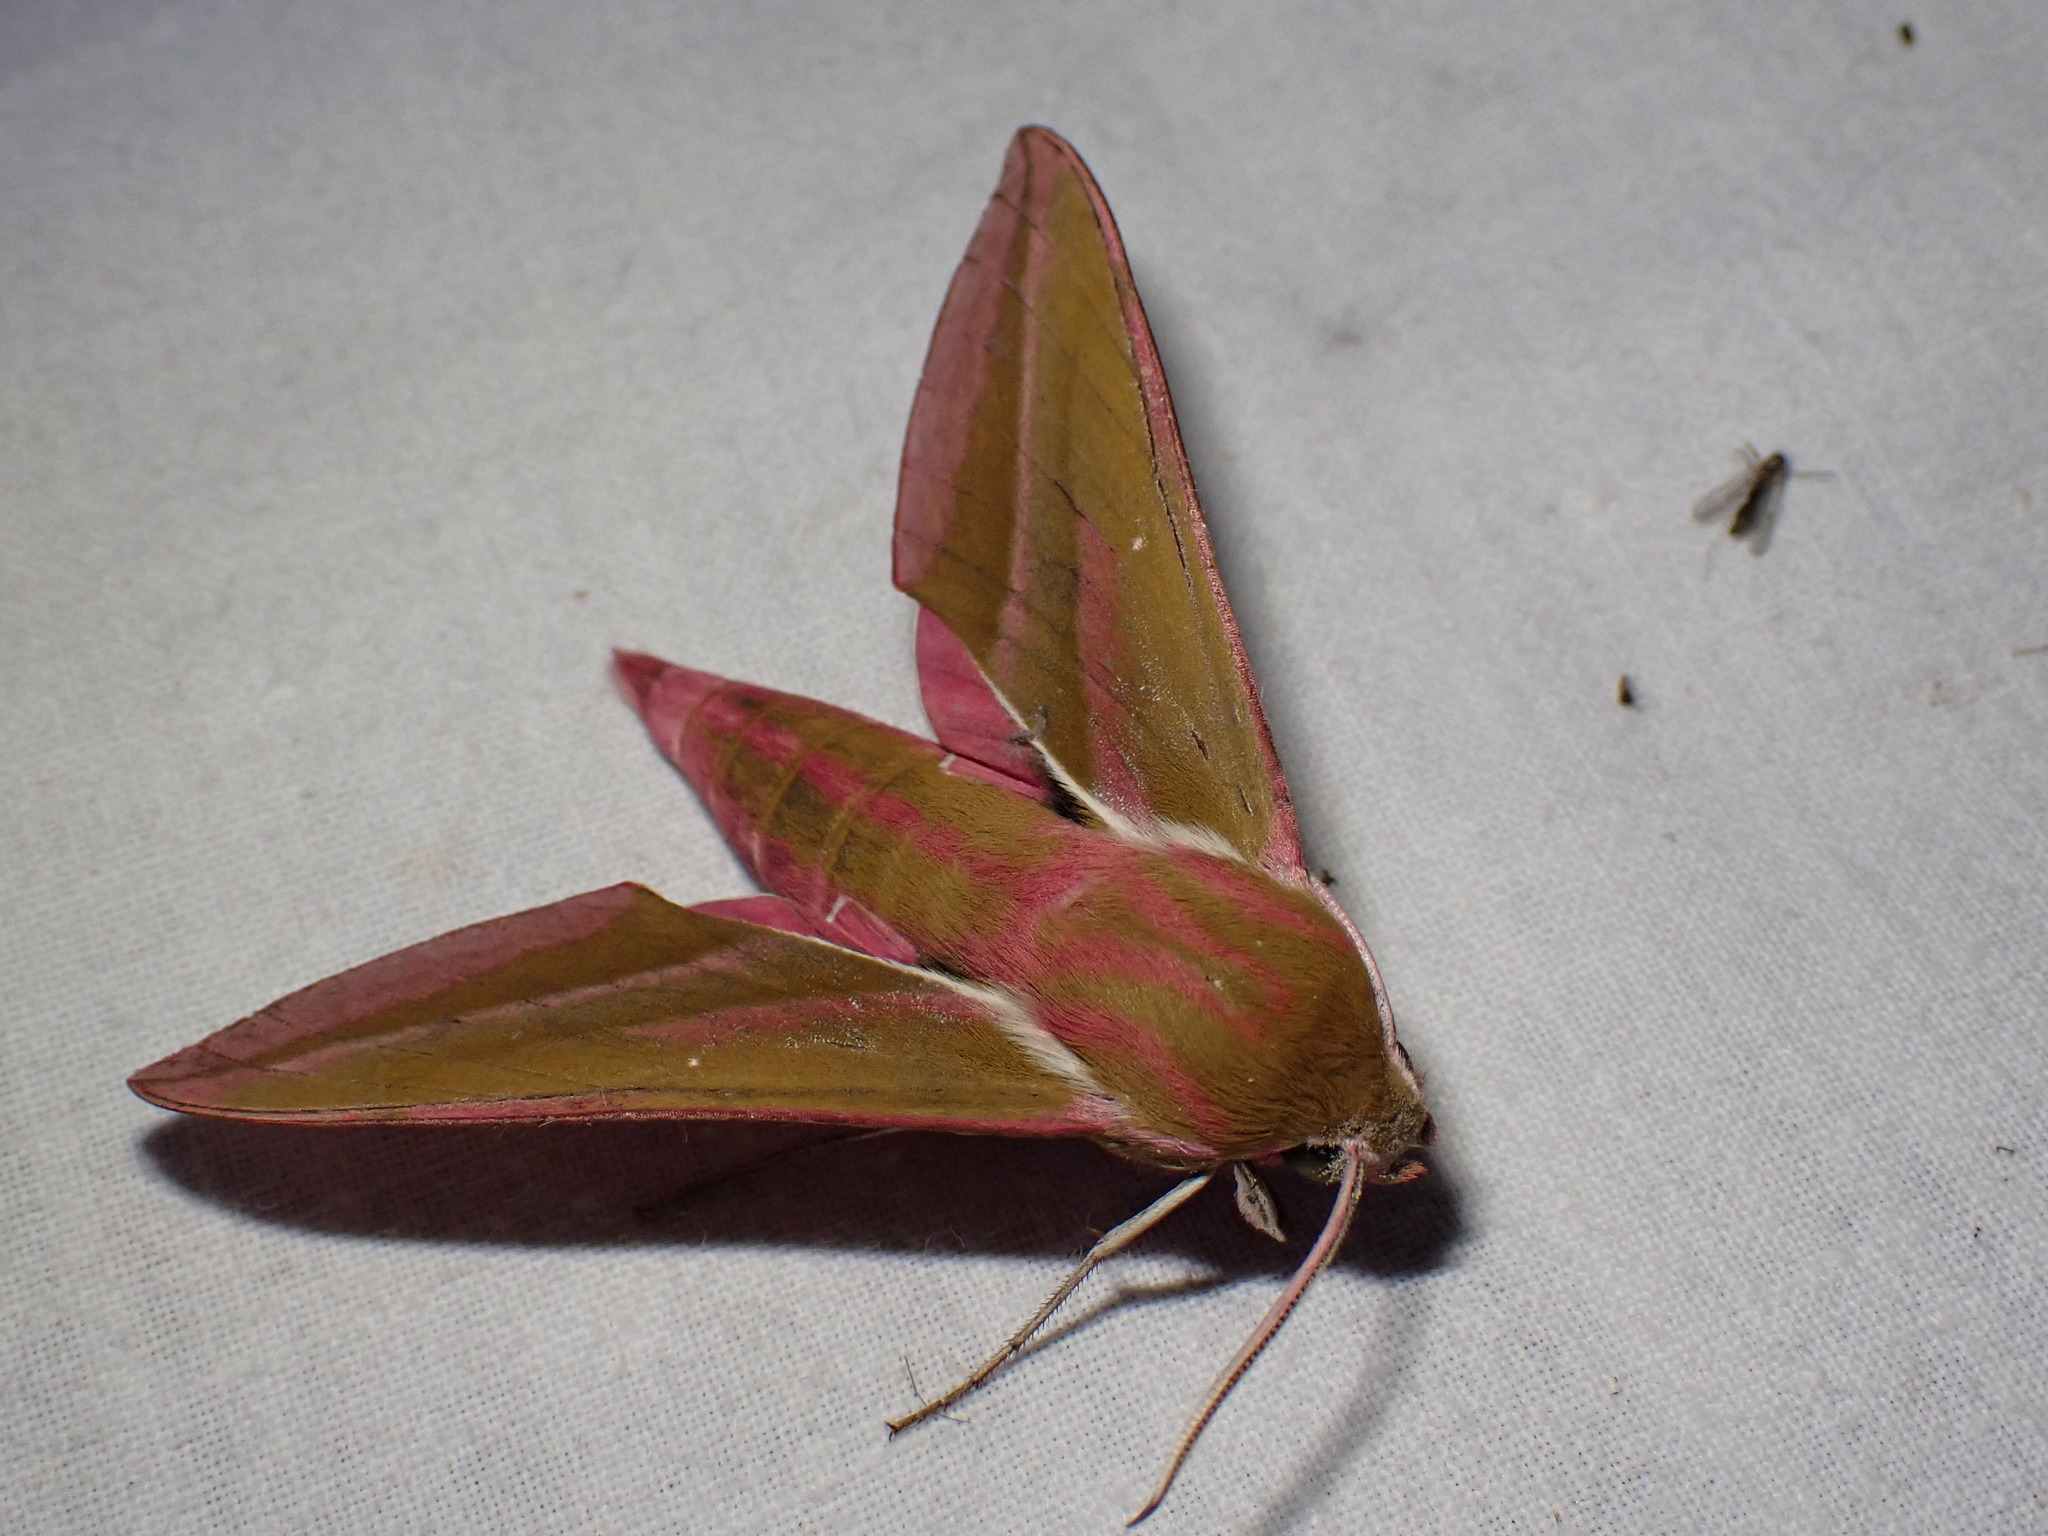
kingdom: Animalia
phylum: Arthropoda
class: Insecta
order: Lepidoptera
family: Sphingidae
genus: Deilephila
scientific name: Deilephila elpenor
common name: Elephant hawk-moth
